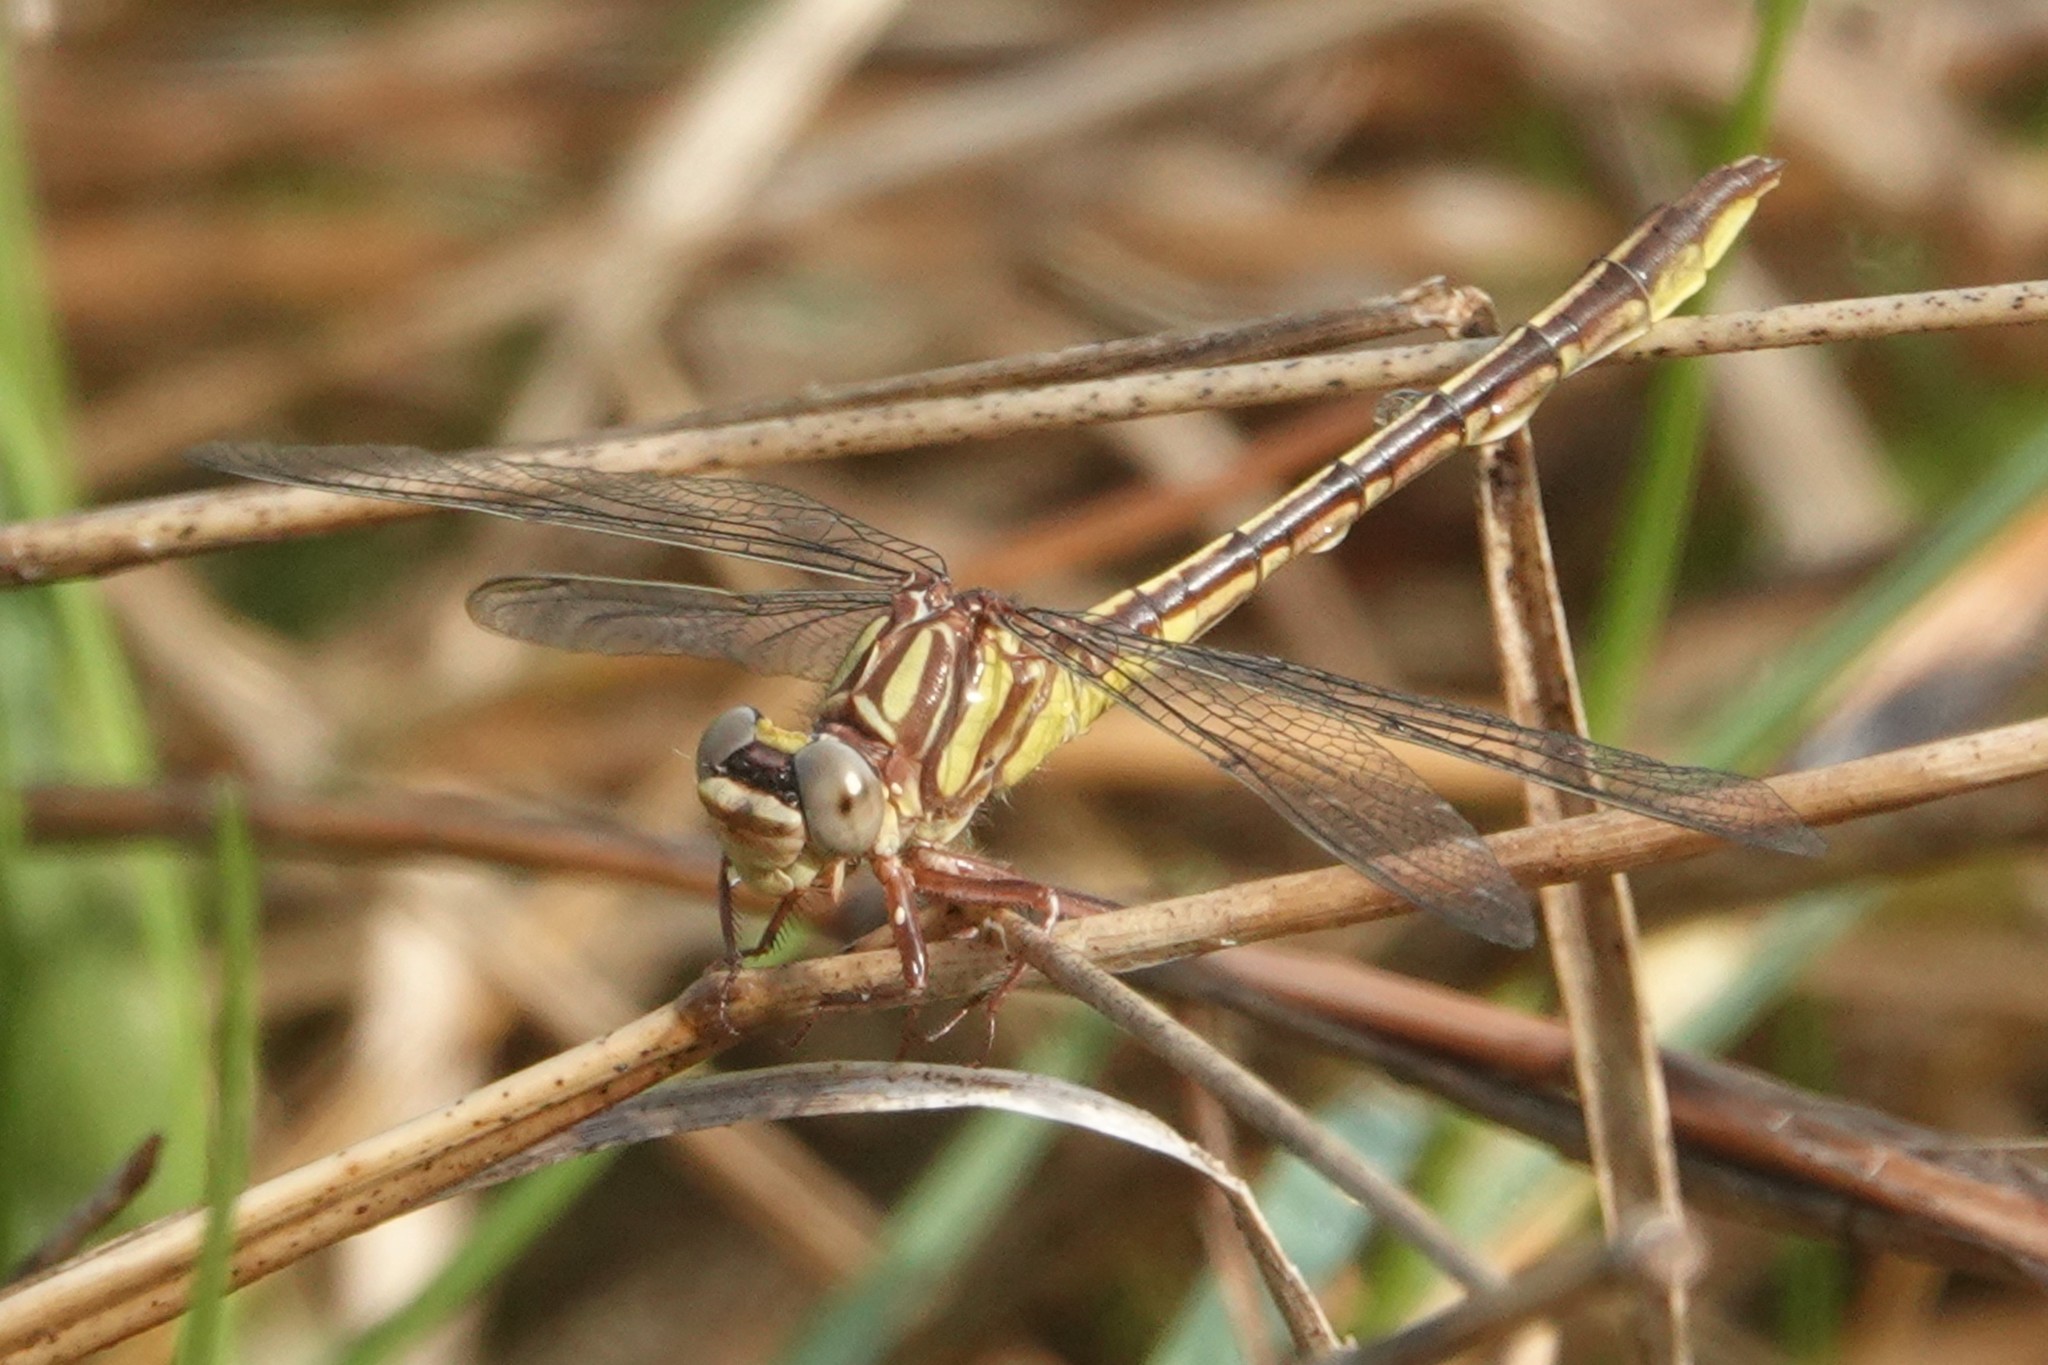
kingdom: Animalia
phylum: Arthropoda
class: Insecta
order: Odonata
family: Gomphidae
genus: Phanogomphus
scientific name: Phanogomphus minutus
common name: Cypress clubtail
